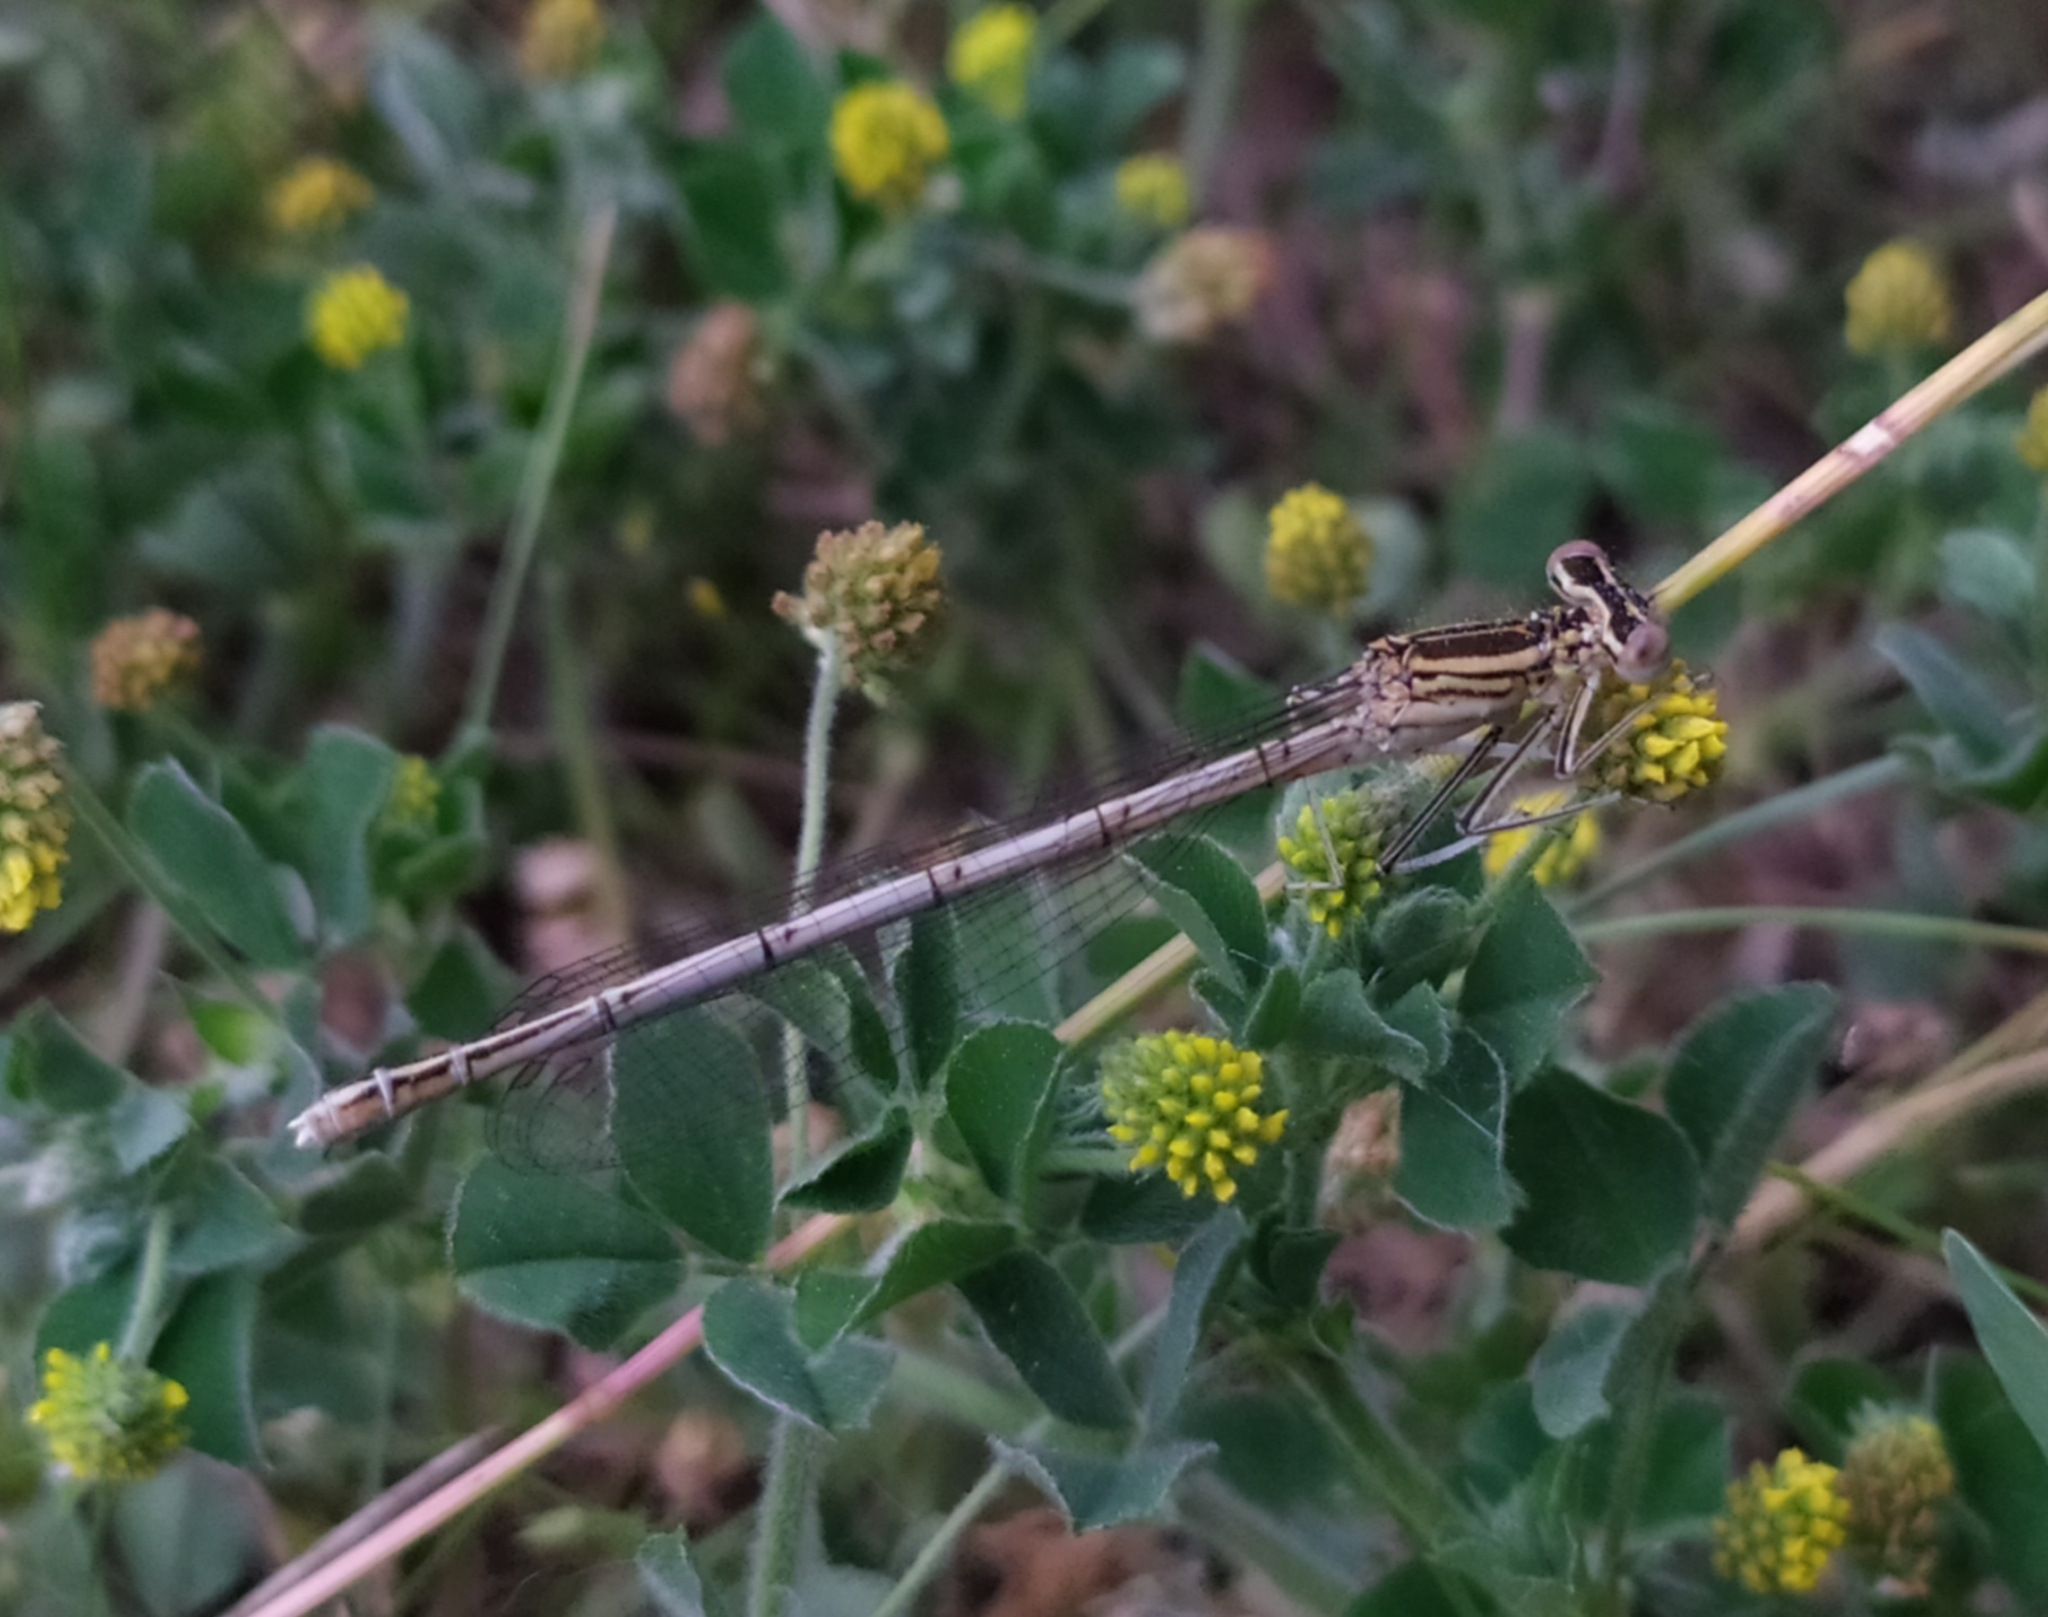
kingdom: Animalia
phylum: Arthropoda
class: Insecta
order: Odonata
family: Platycnemididae
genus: Platycnemis
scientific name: Platycnemis pennipes
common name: White-legged damselfly
